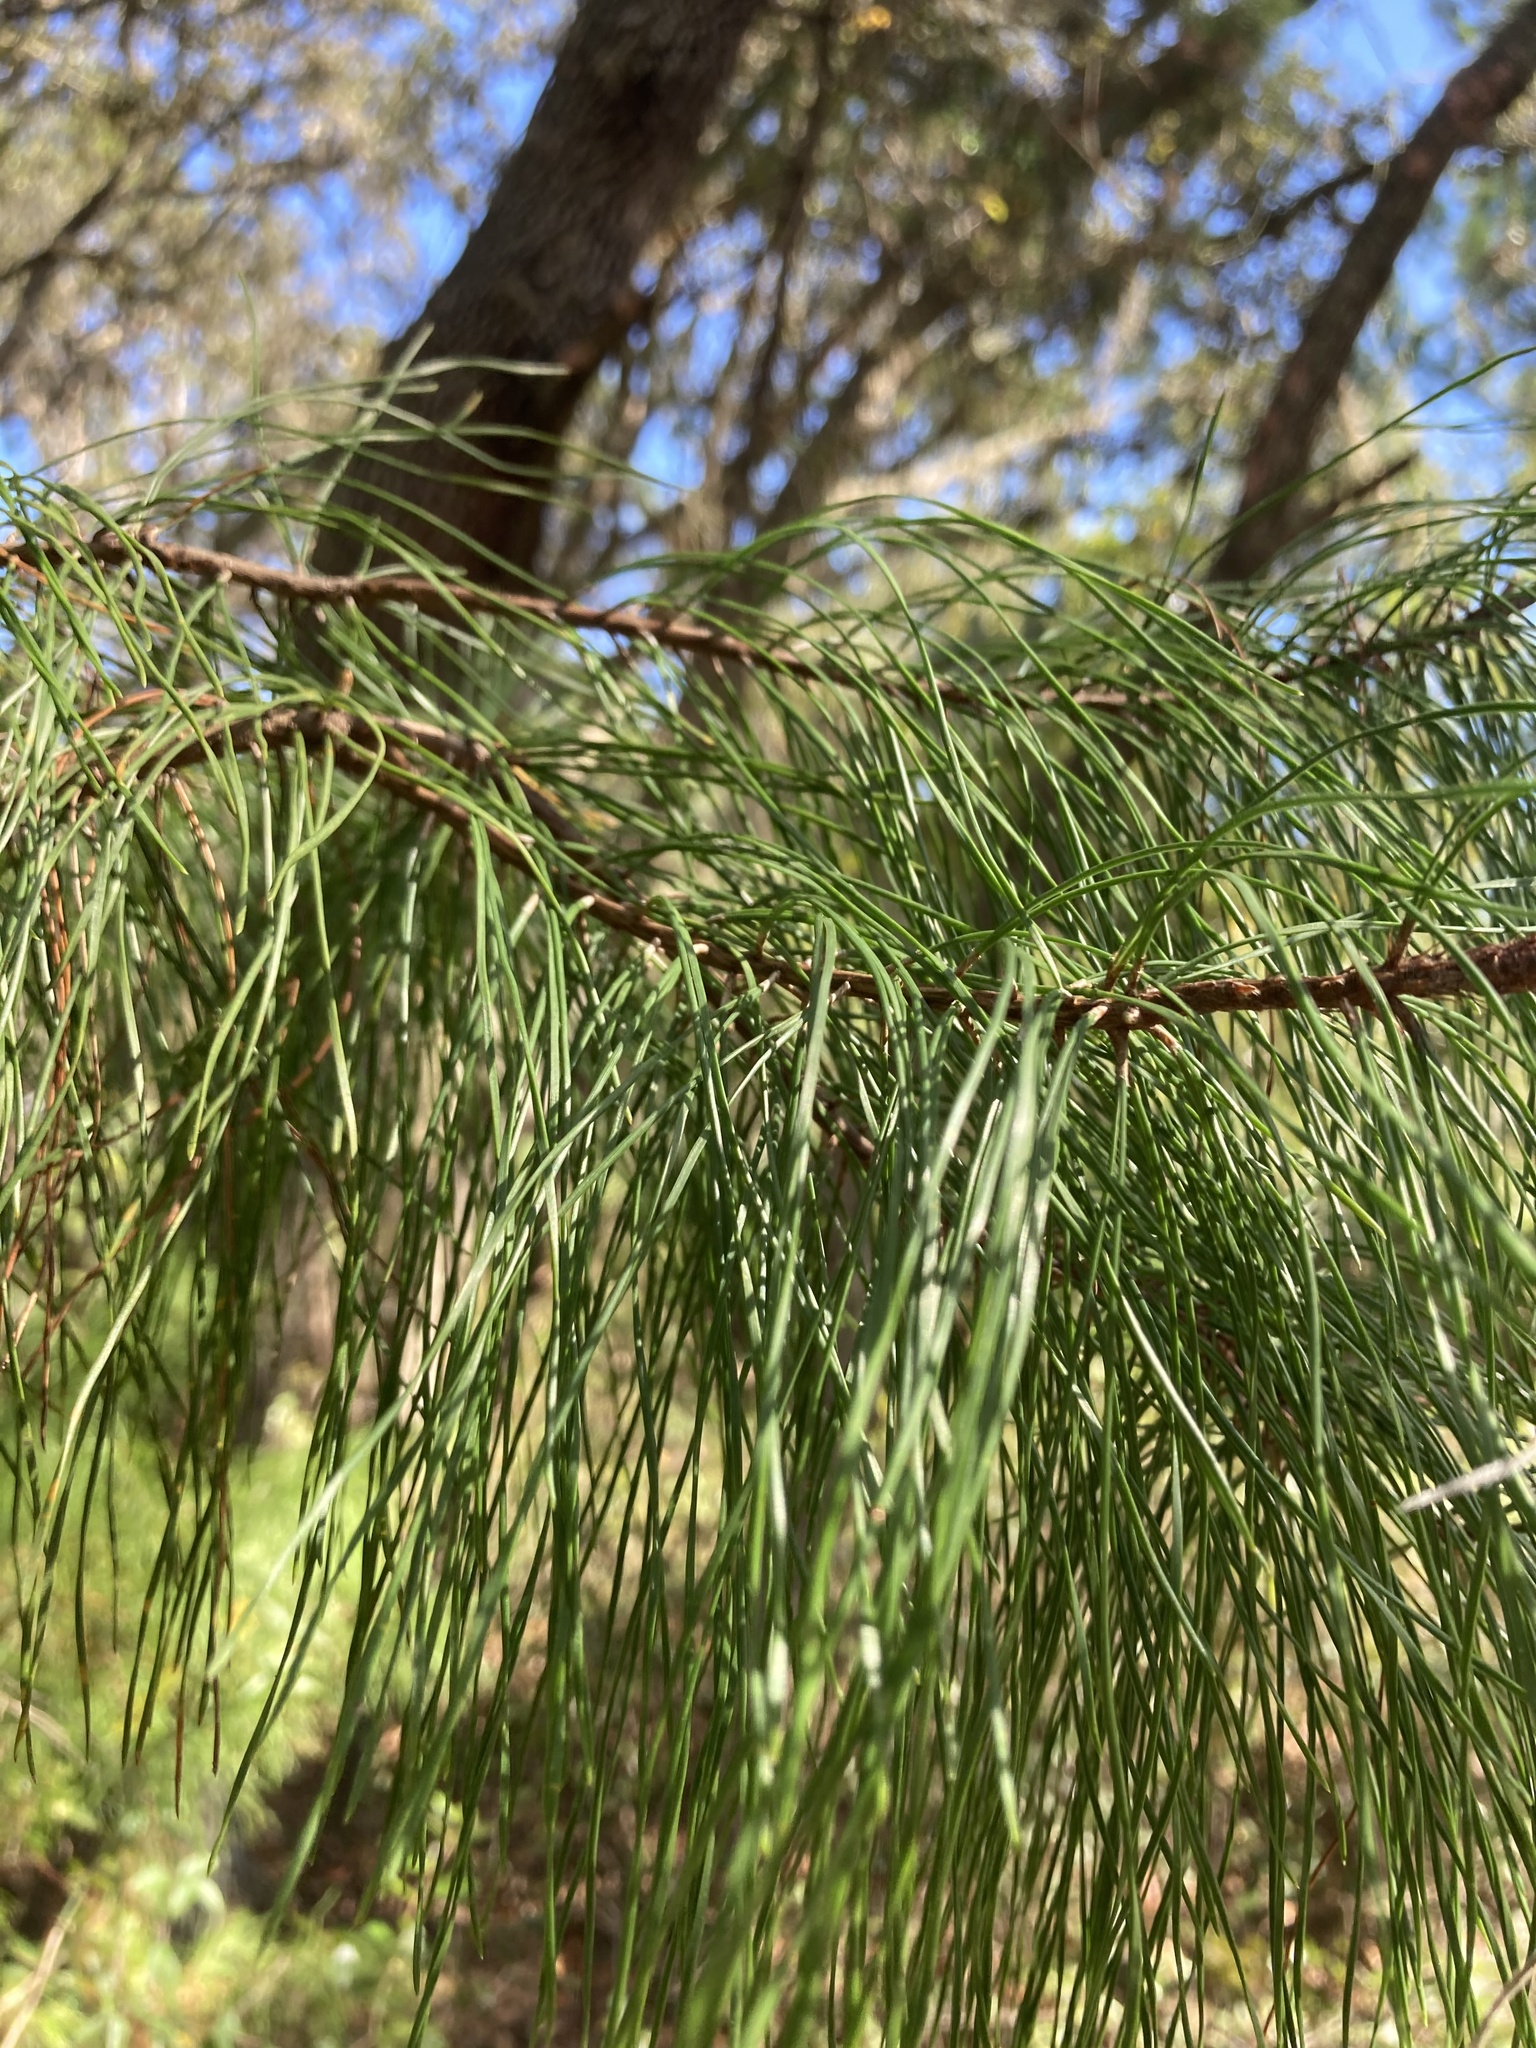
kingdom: Plantae
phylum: Tracheophyta
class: Pinopsida
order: Pinales
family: Pinaceae
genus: Pinus
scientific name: Pinus clausa
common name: Sand pine
